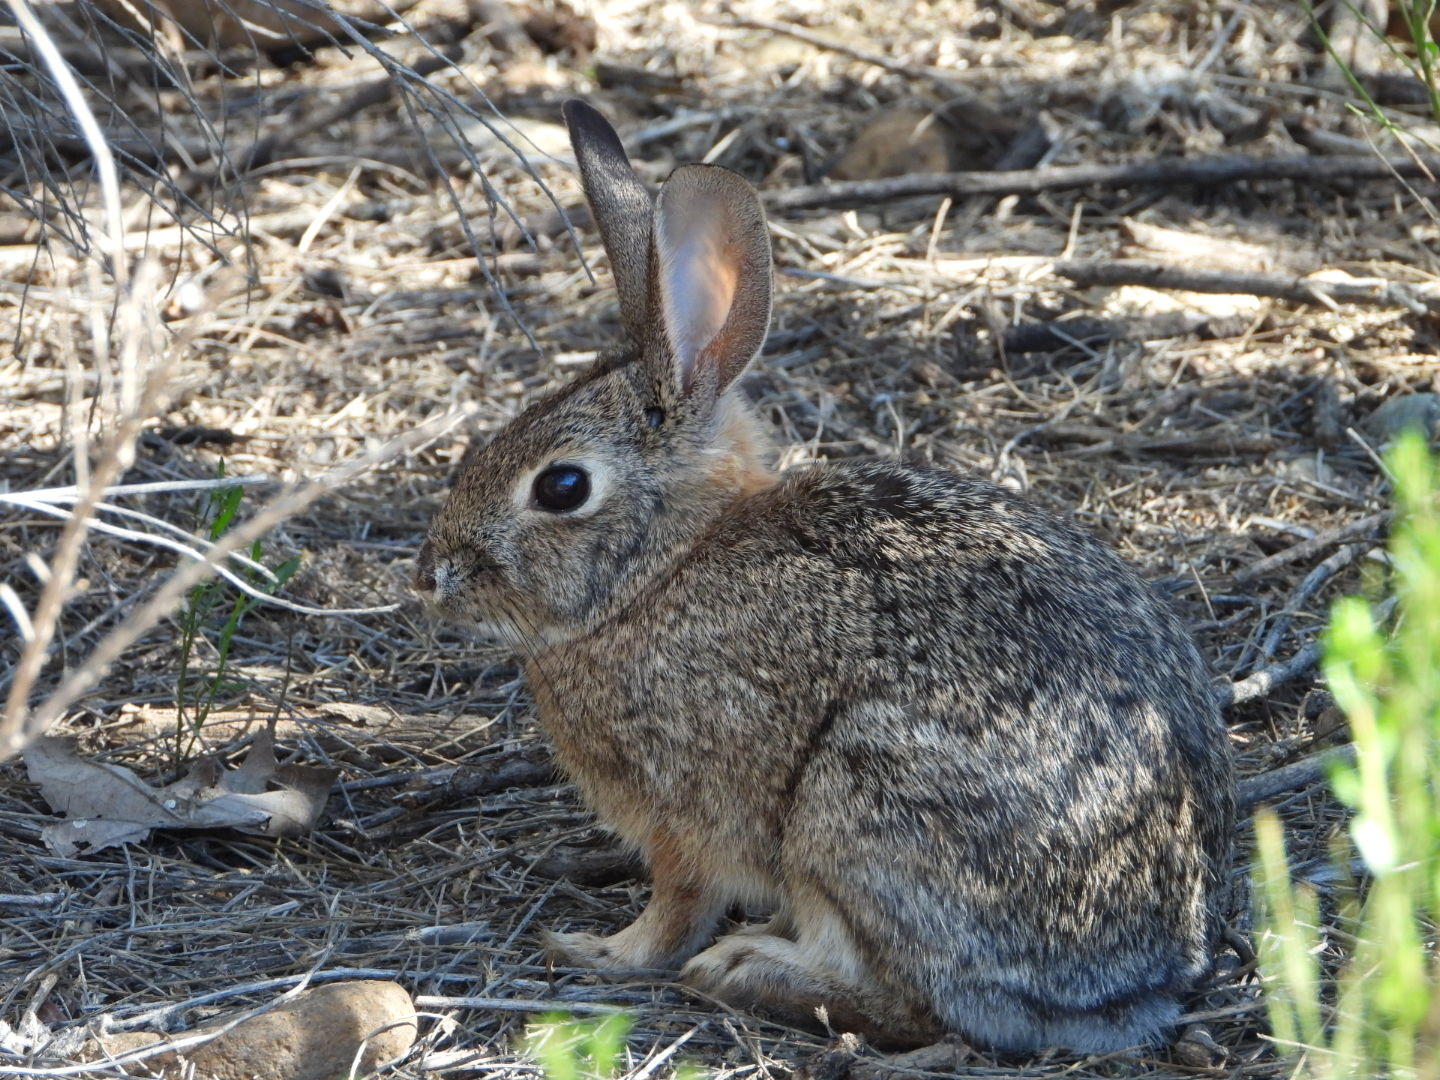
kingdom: Animalia
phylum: Chordata
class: Mammalia
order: Lagomorpha
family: Leporidae
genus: Sylvilagus
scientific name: Sylvilagus audubonii
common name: Desert cottontail
